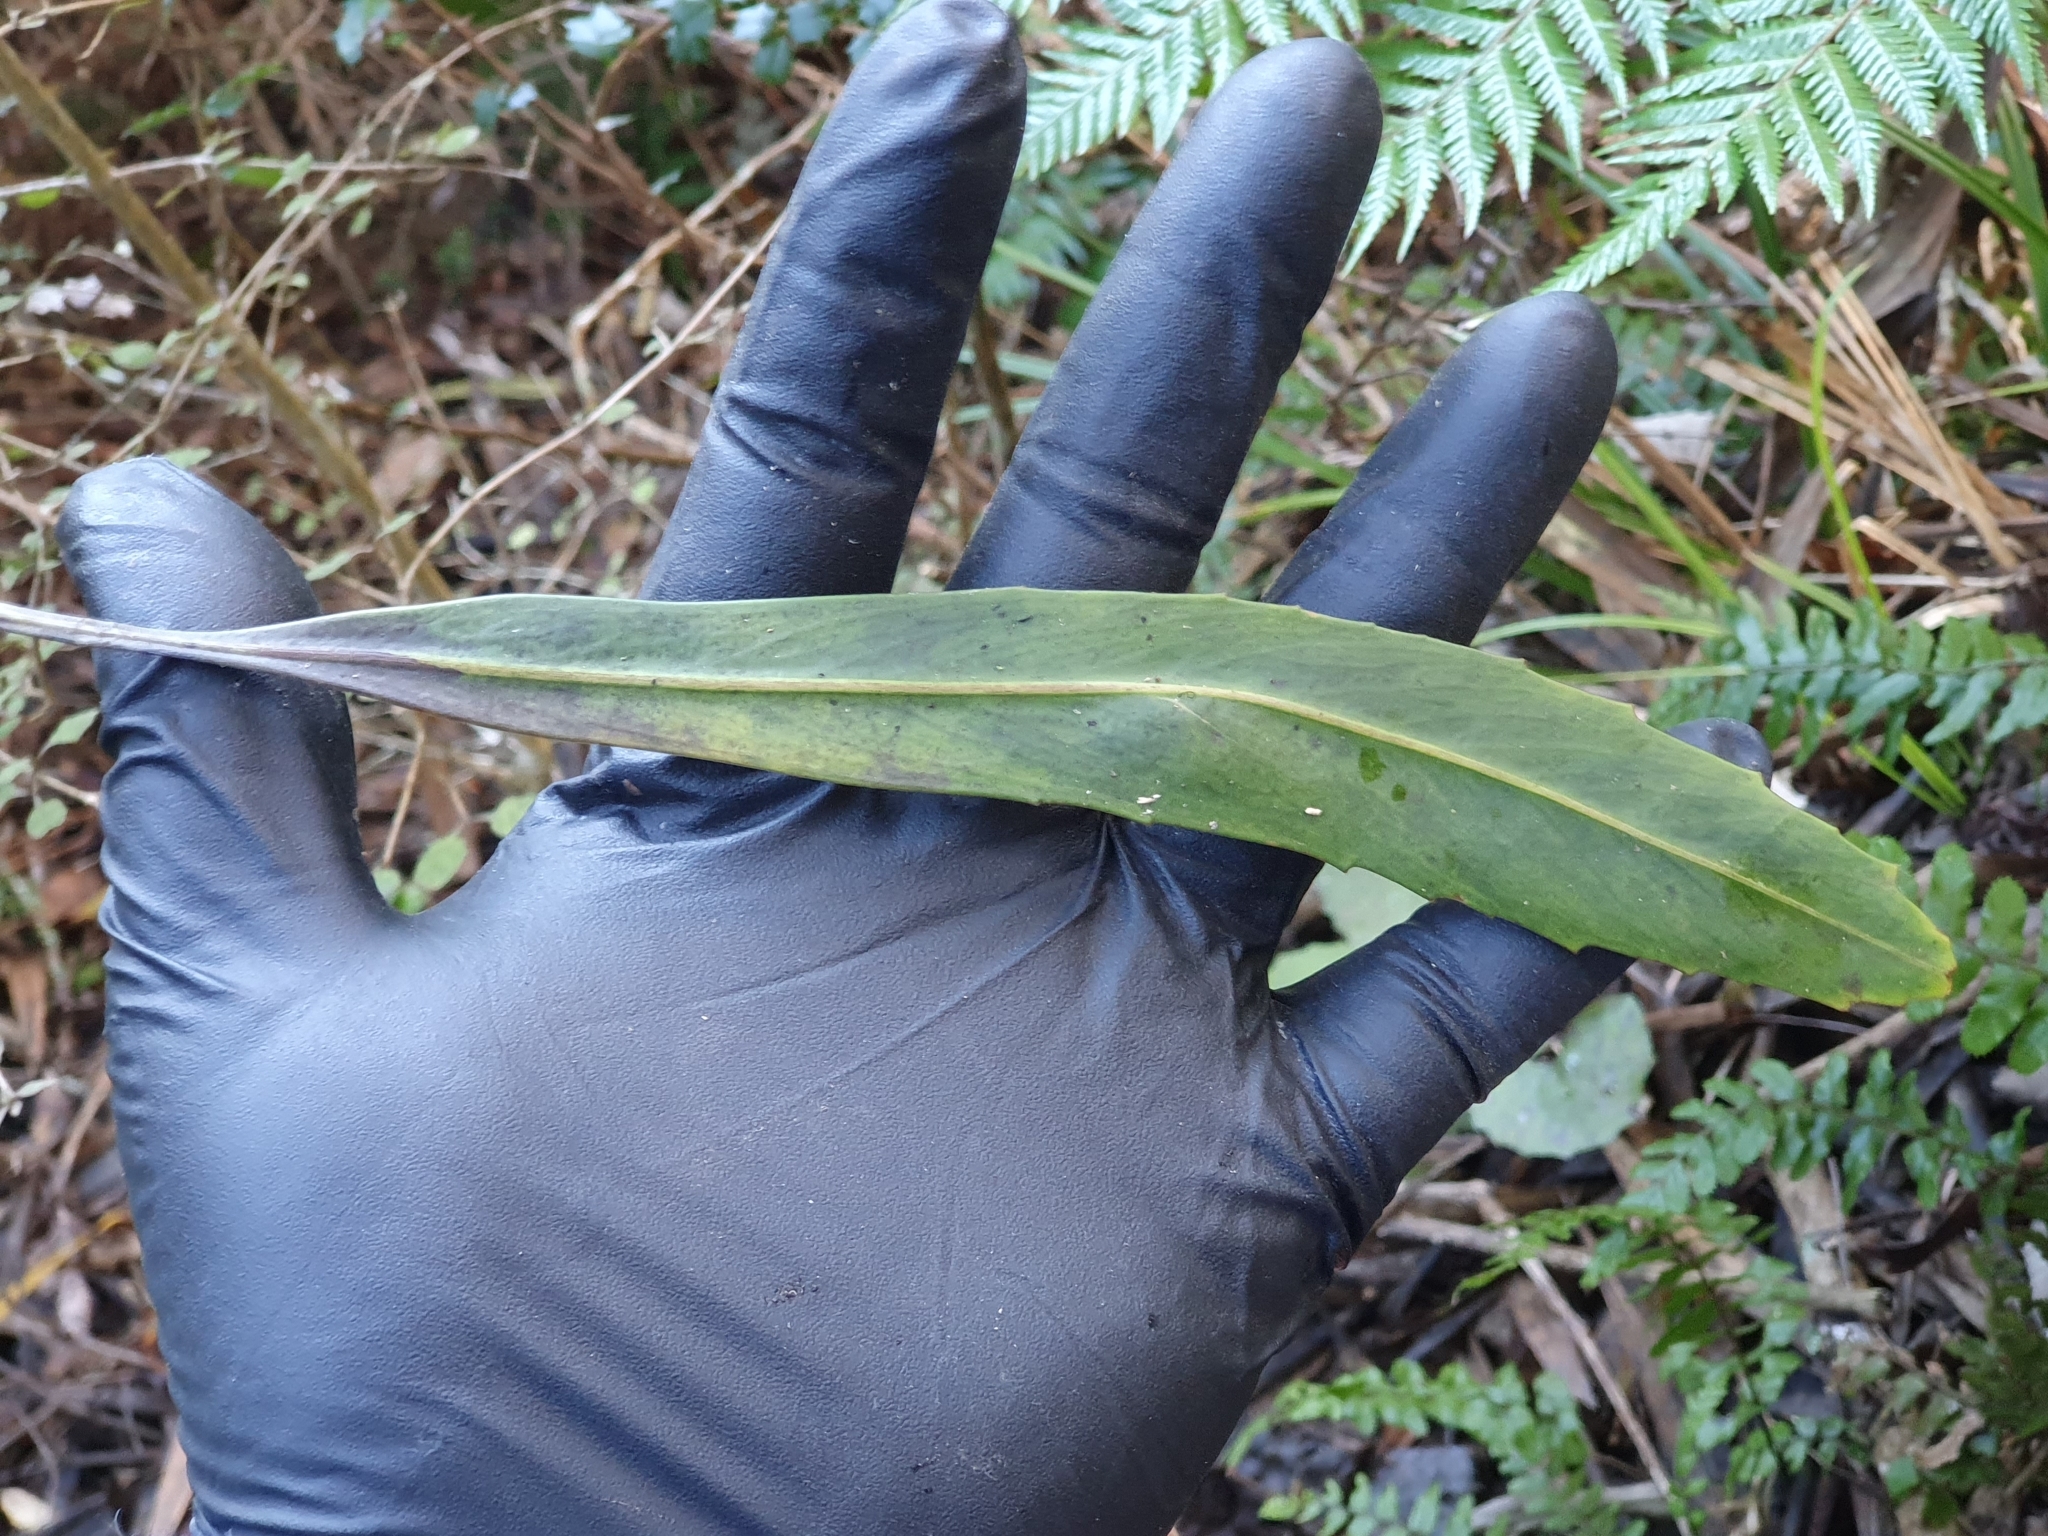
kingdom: Plantae
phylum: Tracheophyta
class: Magnoliopsida
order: Apiales
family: Araliaceae
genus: Pseudopanax
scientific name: Pseudopanax crassifolius
